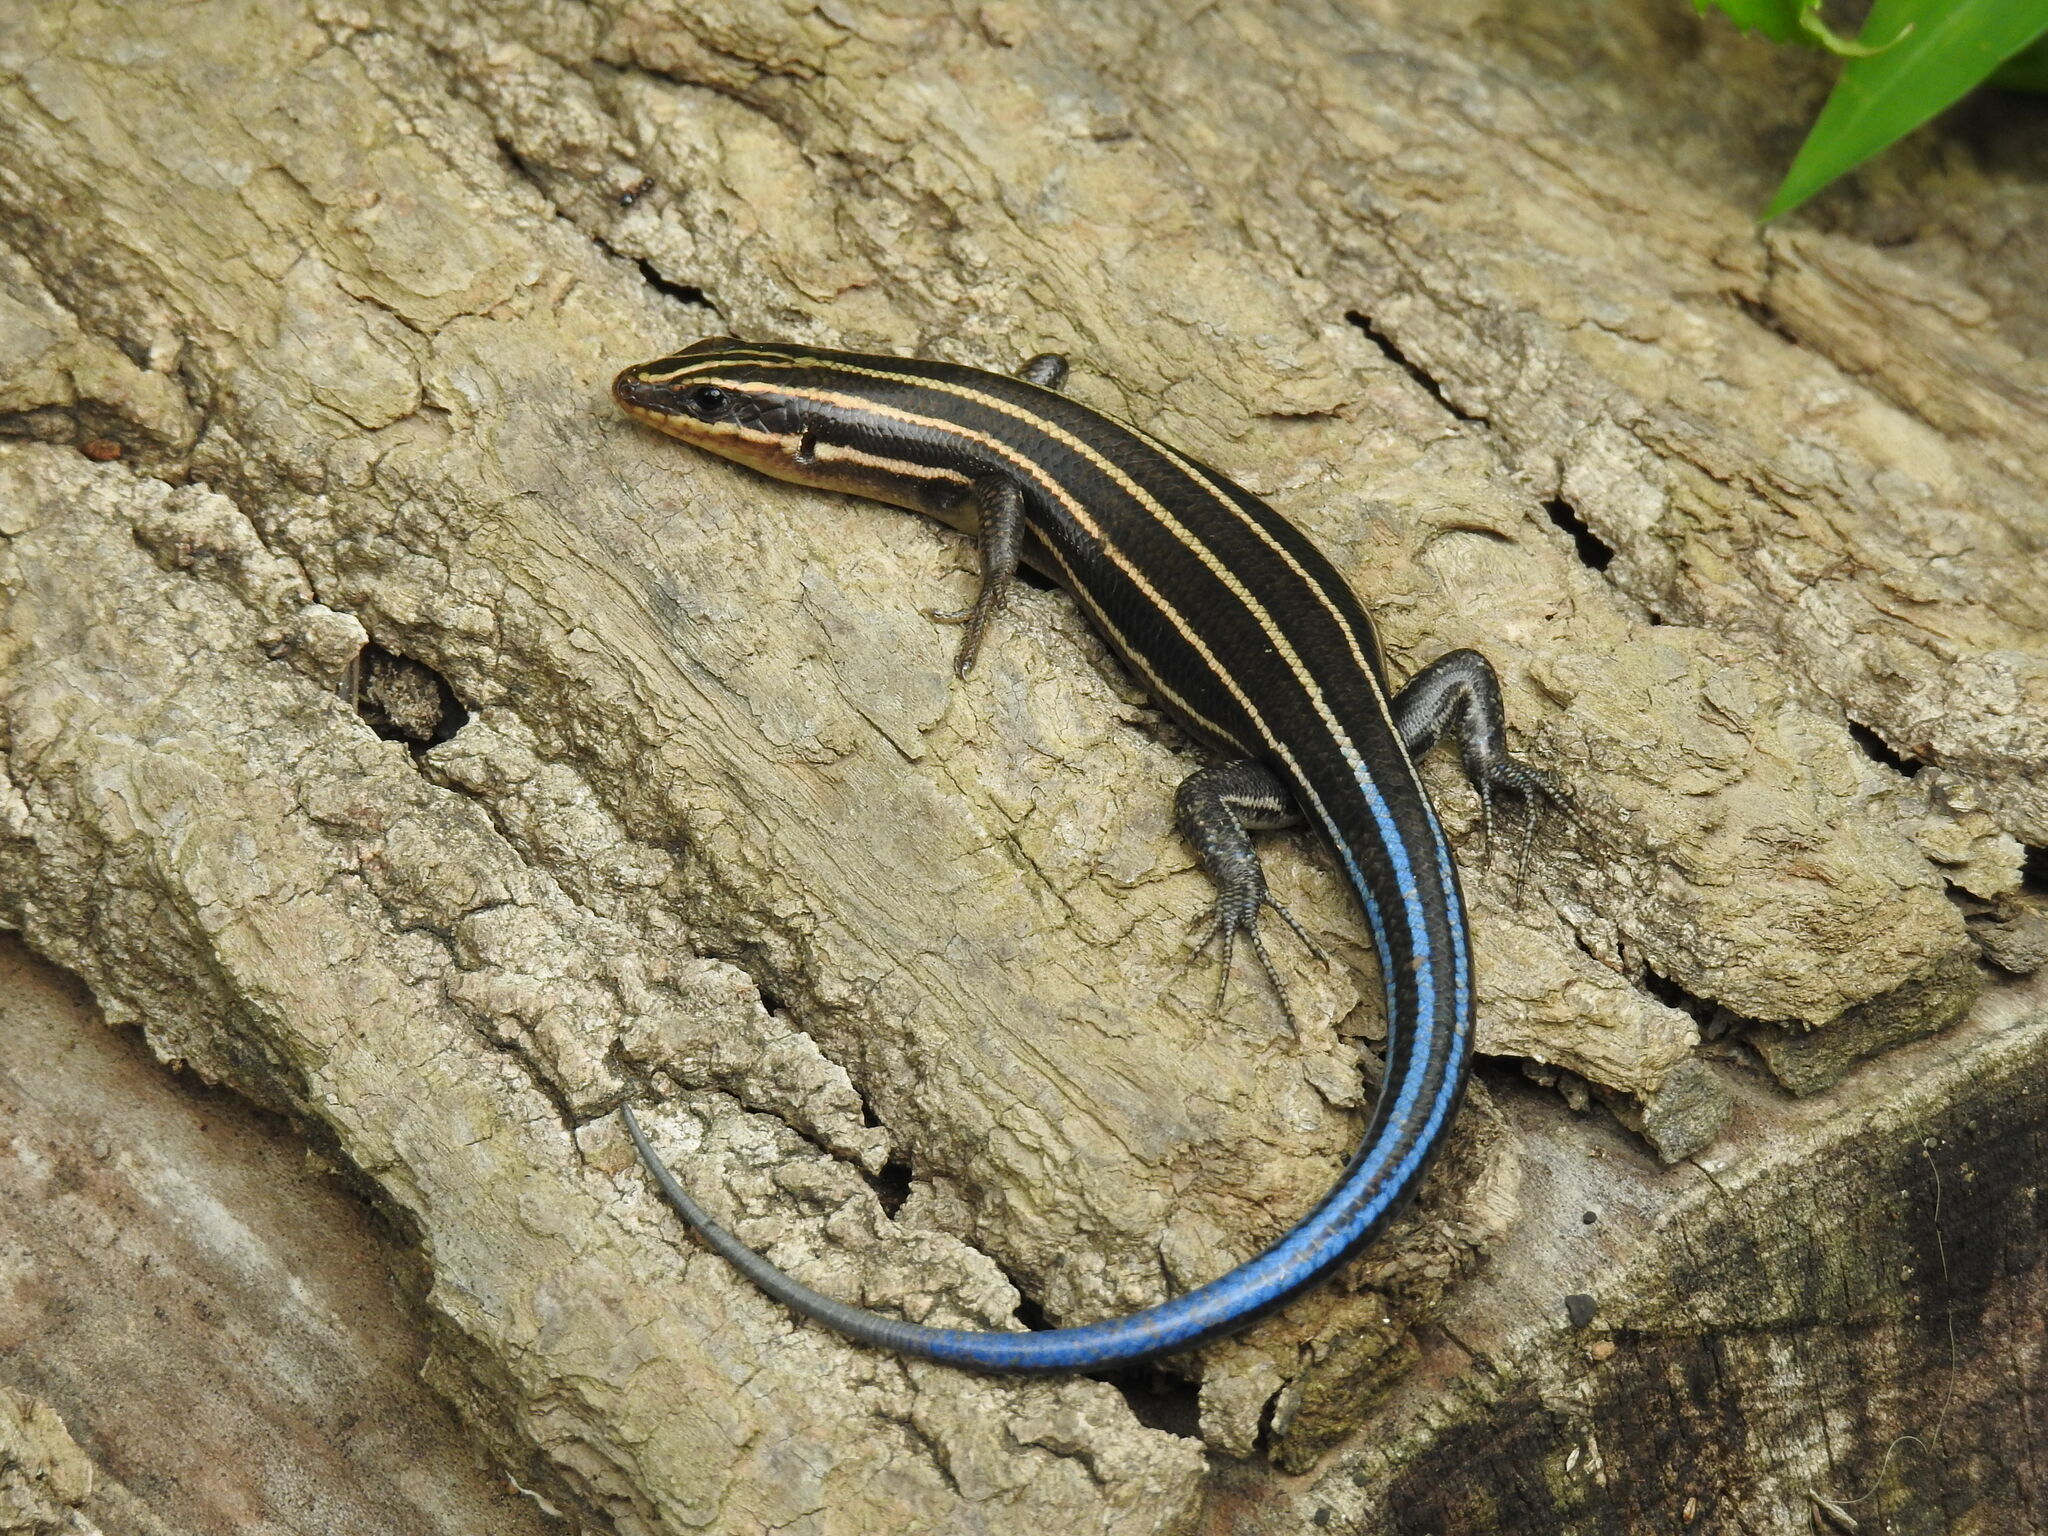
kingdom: Animalia
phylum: Chordata
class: Squamata
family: Scincidae
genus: Plestiodon
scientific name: Plestiodon fasciatus
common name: Five-lined skink
